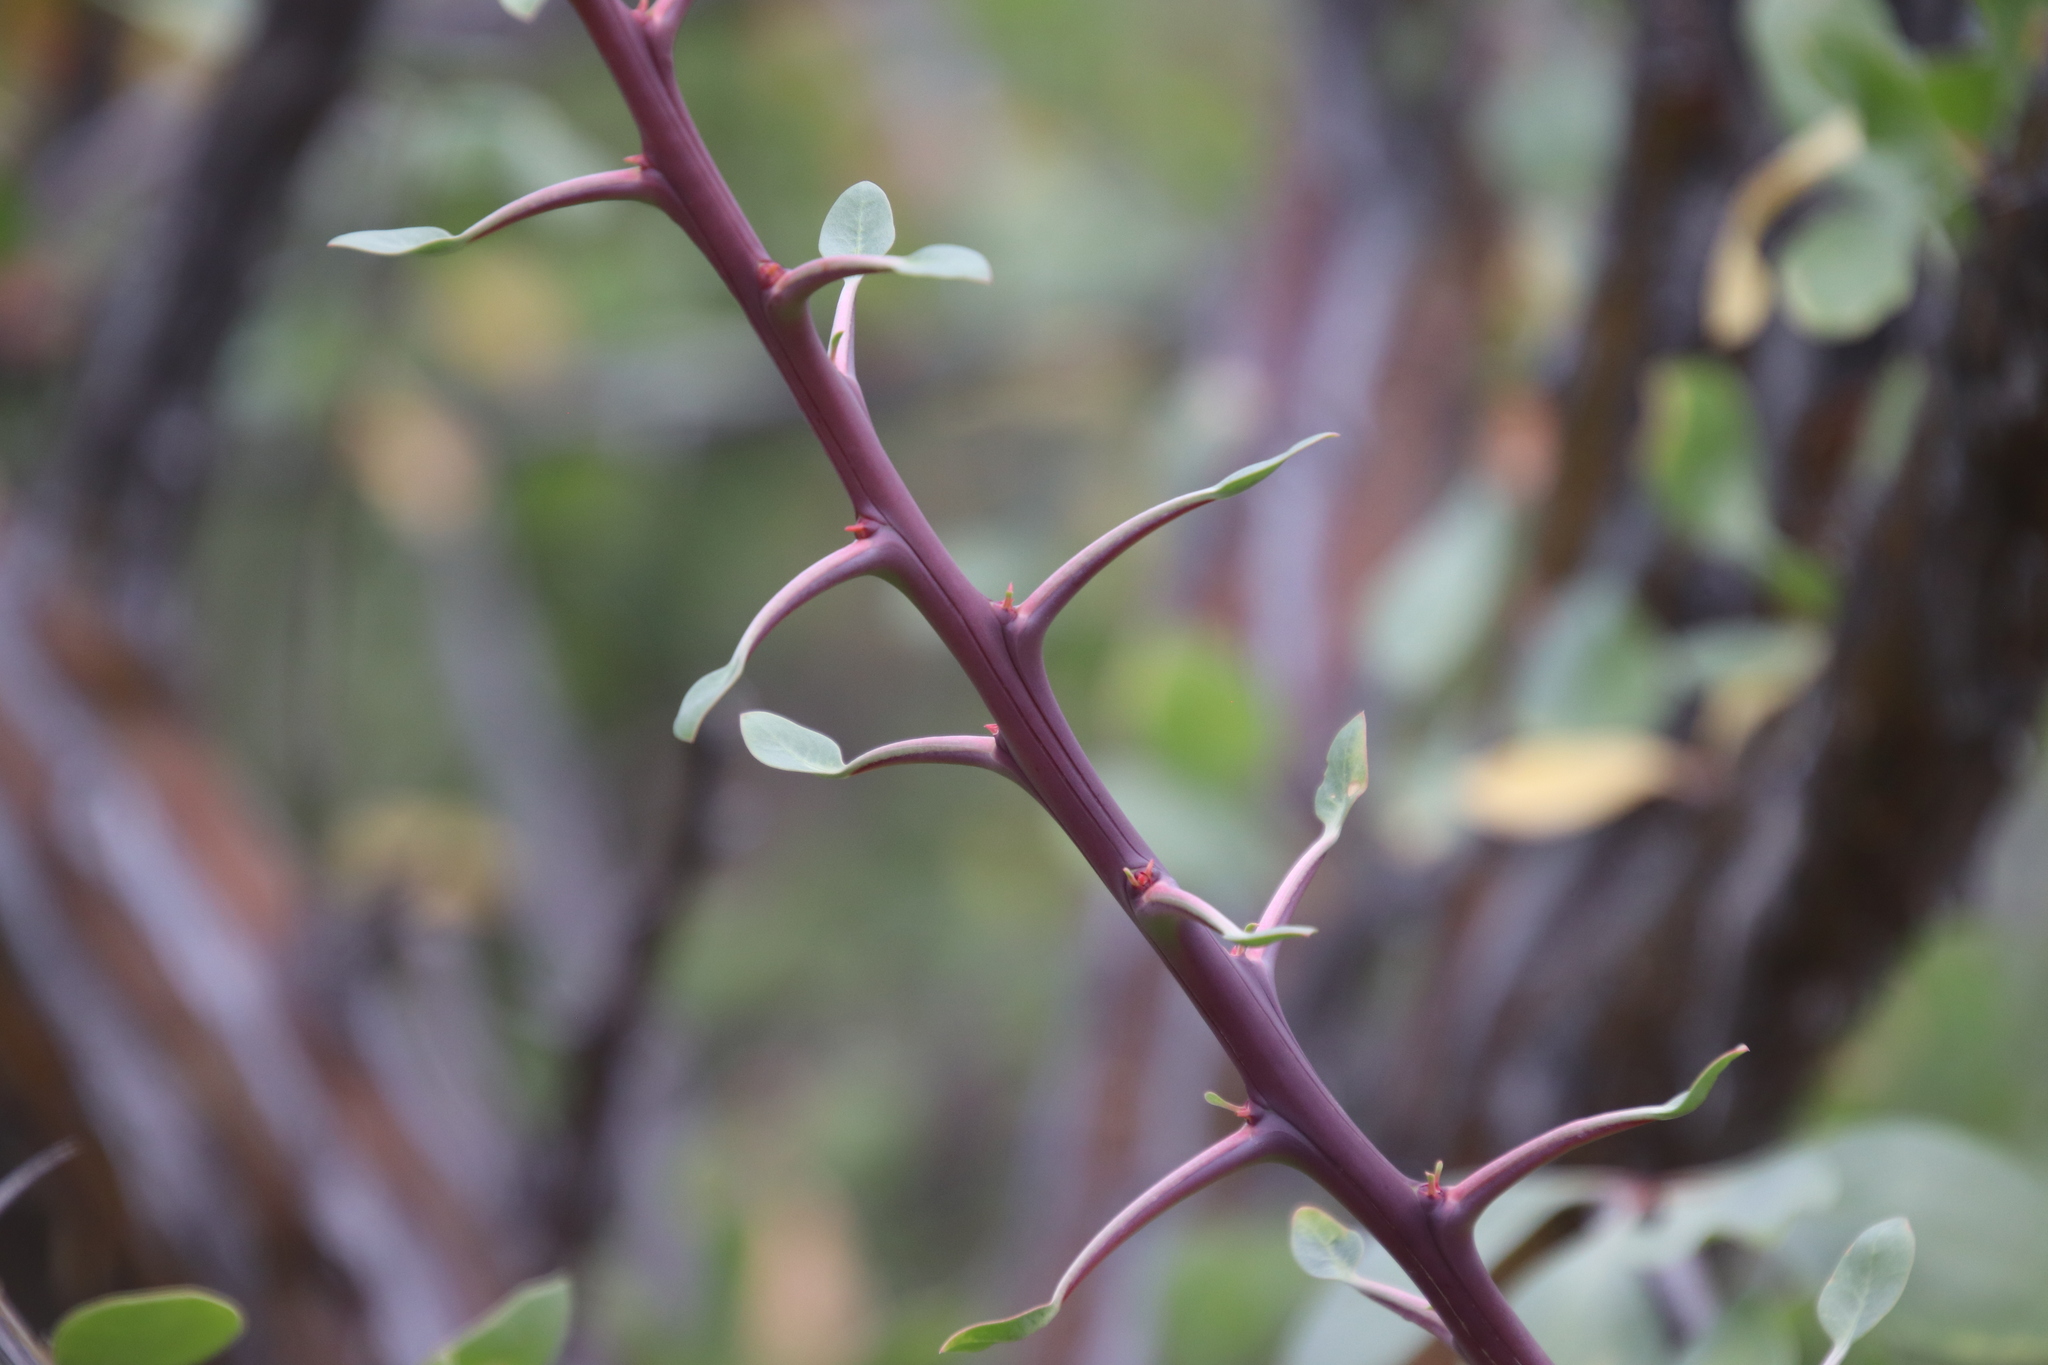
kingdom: Plantae
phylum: Tracheophyta
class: Magnoliopsida
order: Ericales
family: Fouquieriaceae
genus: Fouquieria
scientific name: Fouquieria diguetii
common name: Adam's tree
